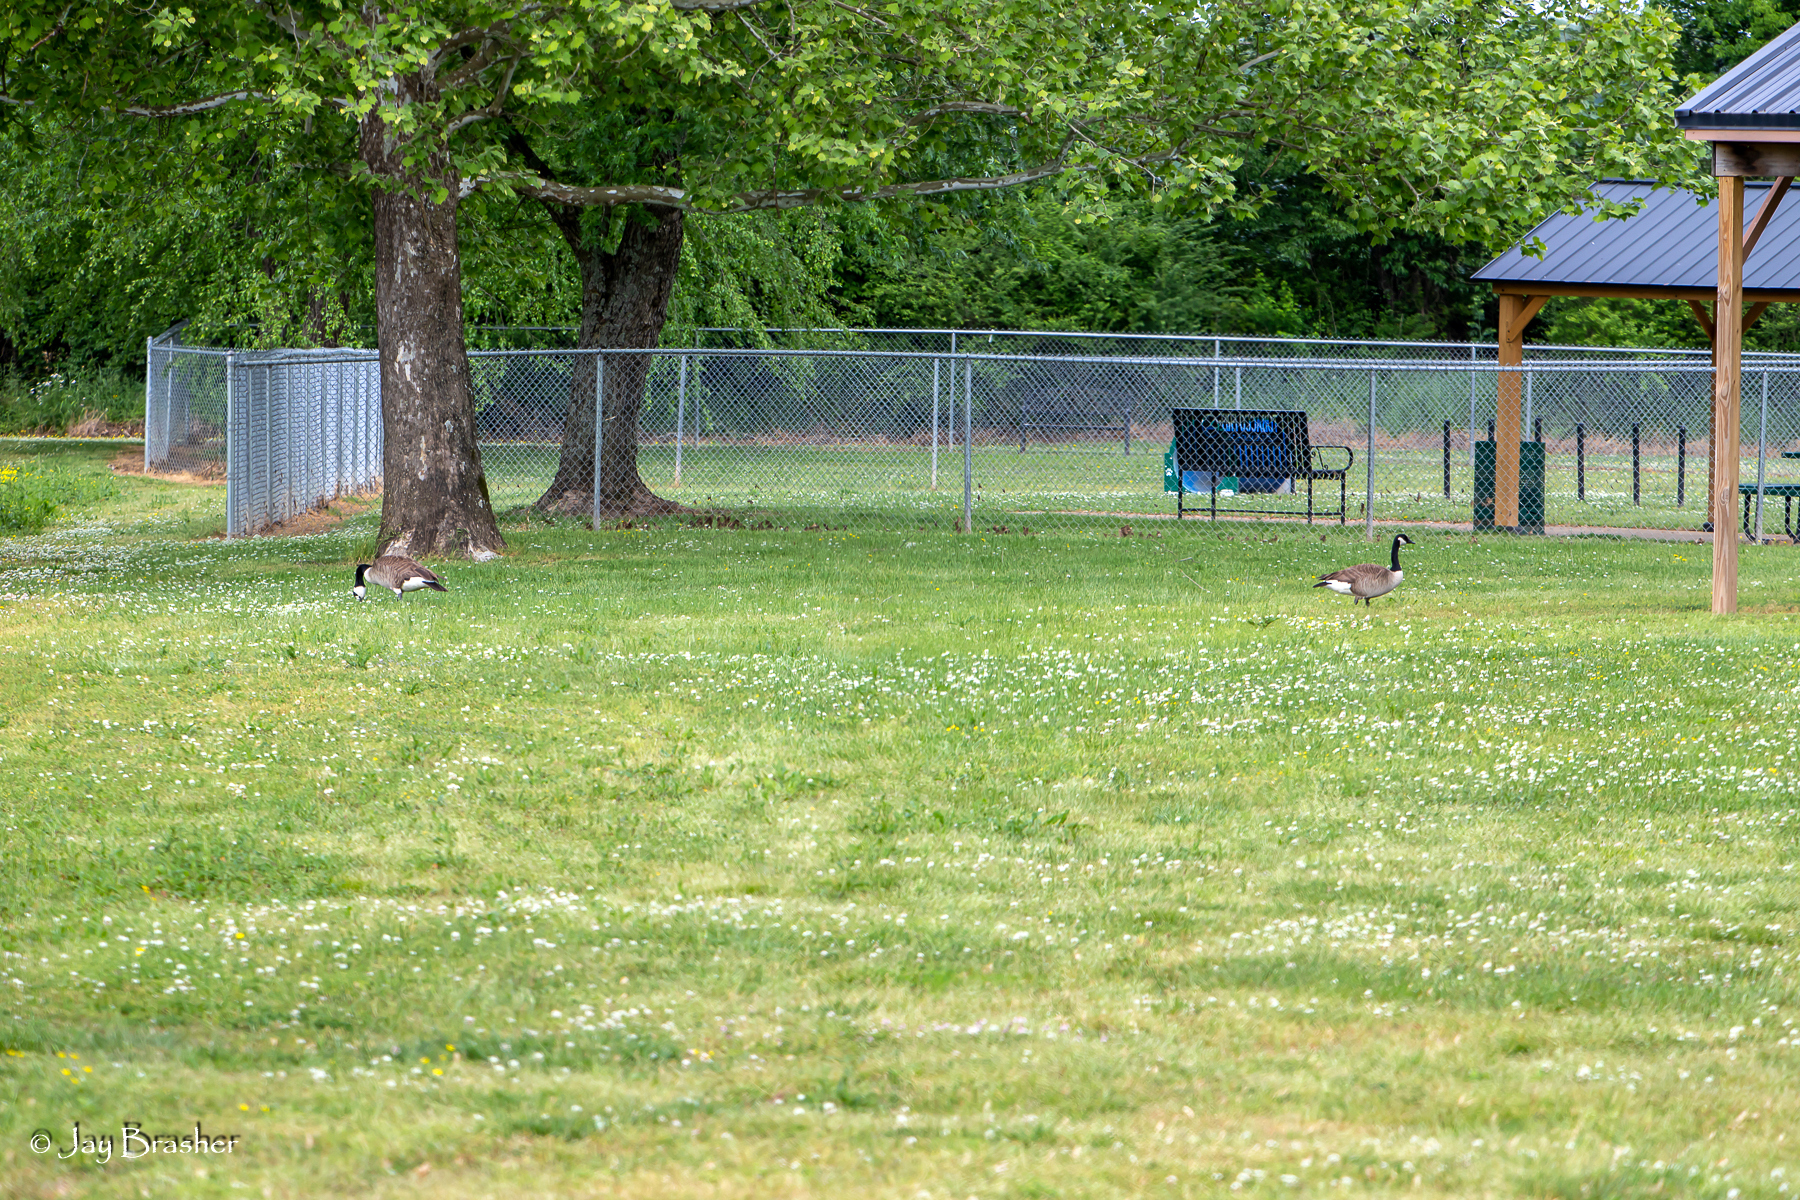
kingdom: Animalia
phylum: Chordata
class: Aves
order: Anseriformes
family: Anatidae
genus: Branta
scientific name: Branta canadensis
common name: Canada goose
